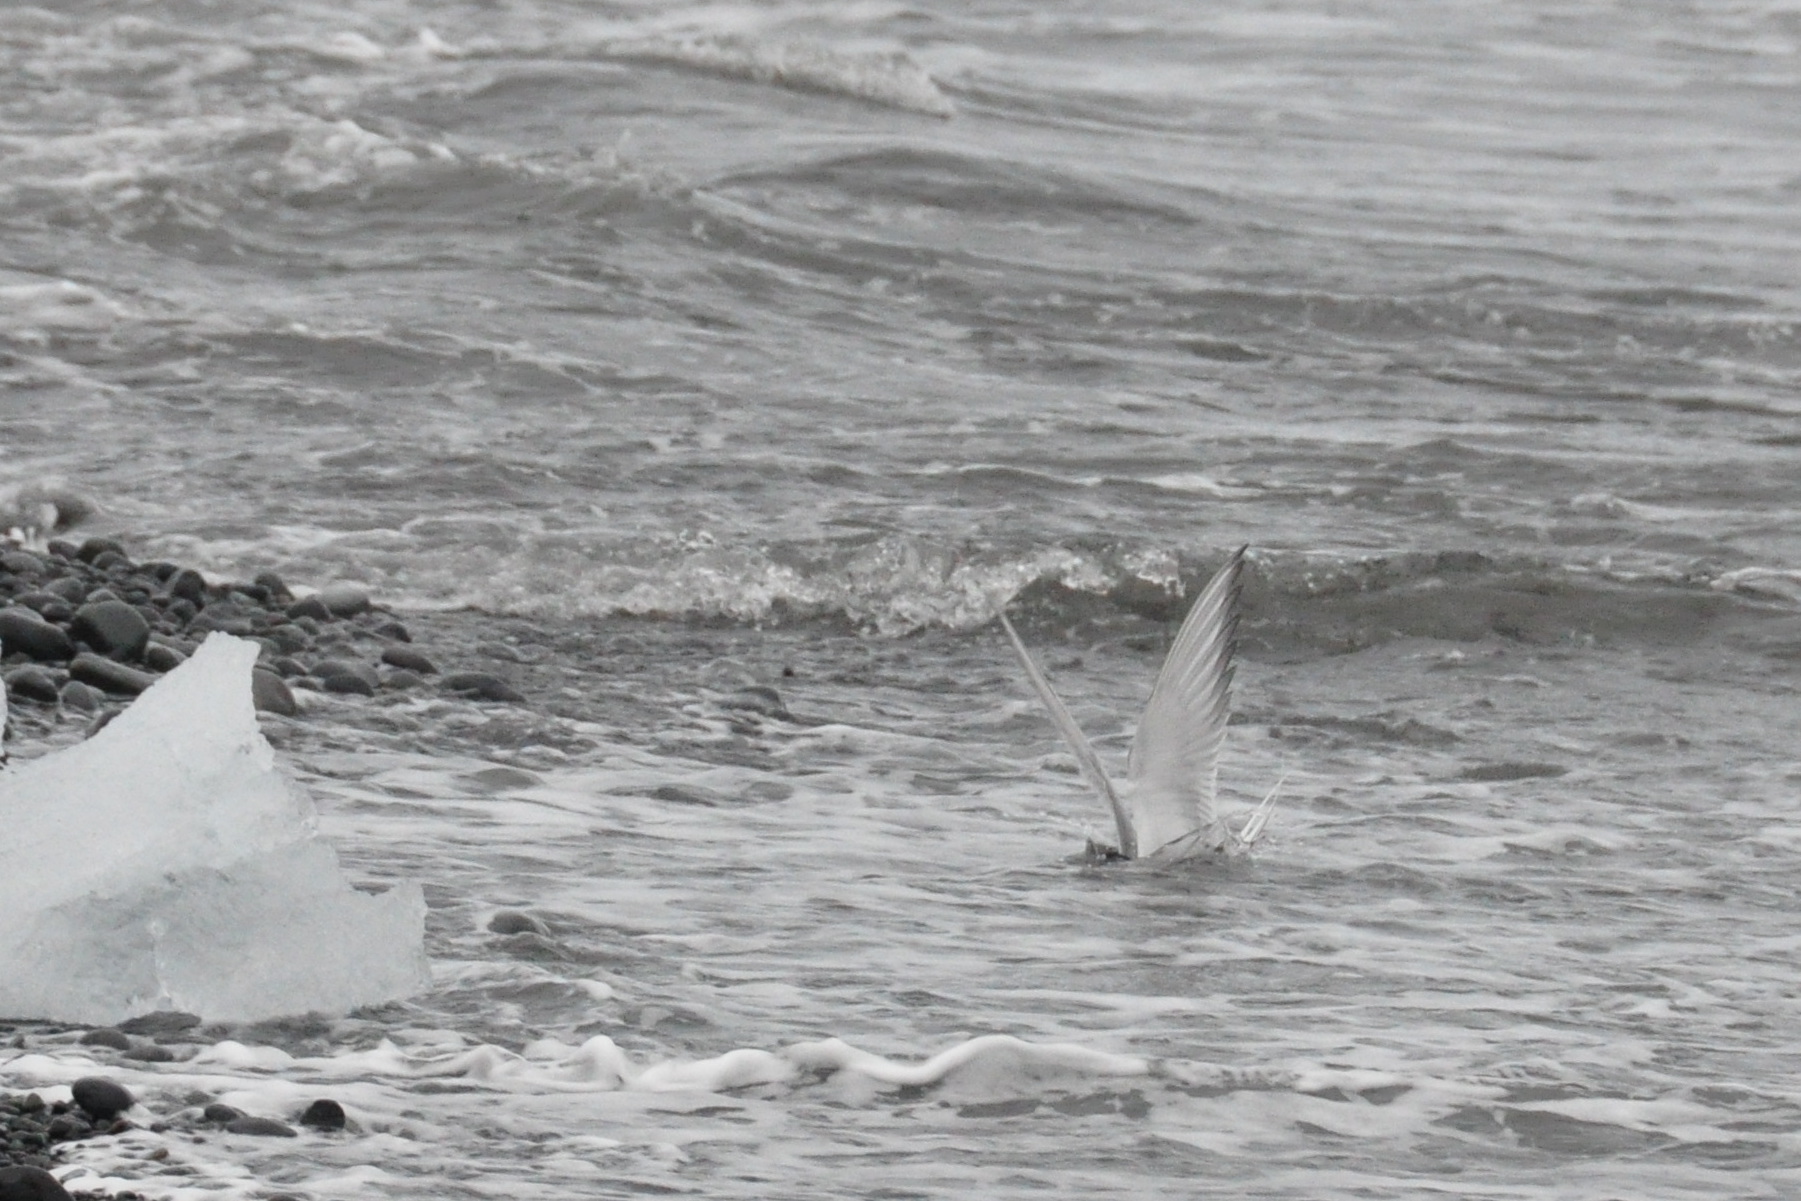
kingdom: Animalia
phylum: Chordata
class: Aves
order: Charadriiformes
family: Laridae
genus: Sterna
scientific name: Sterna paradisaea
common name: Arctic tern
